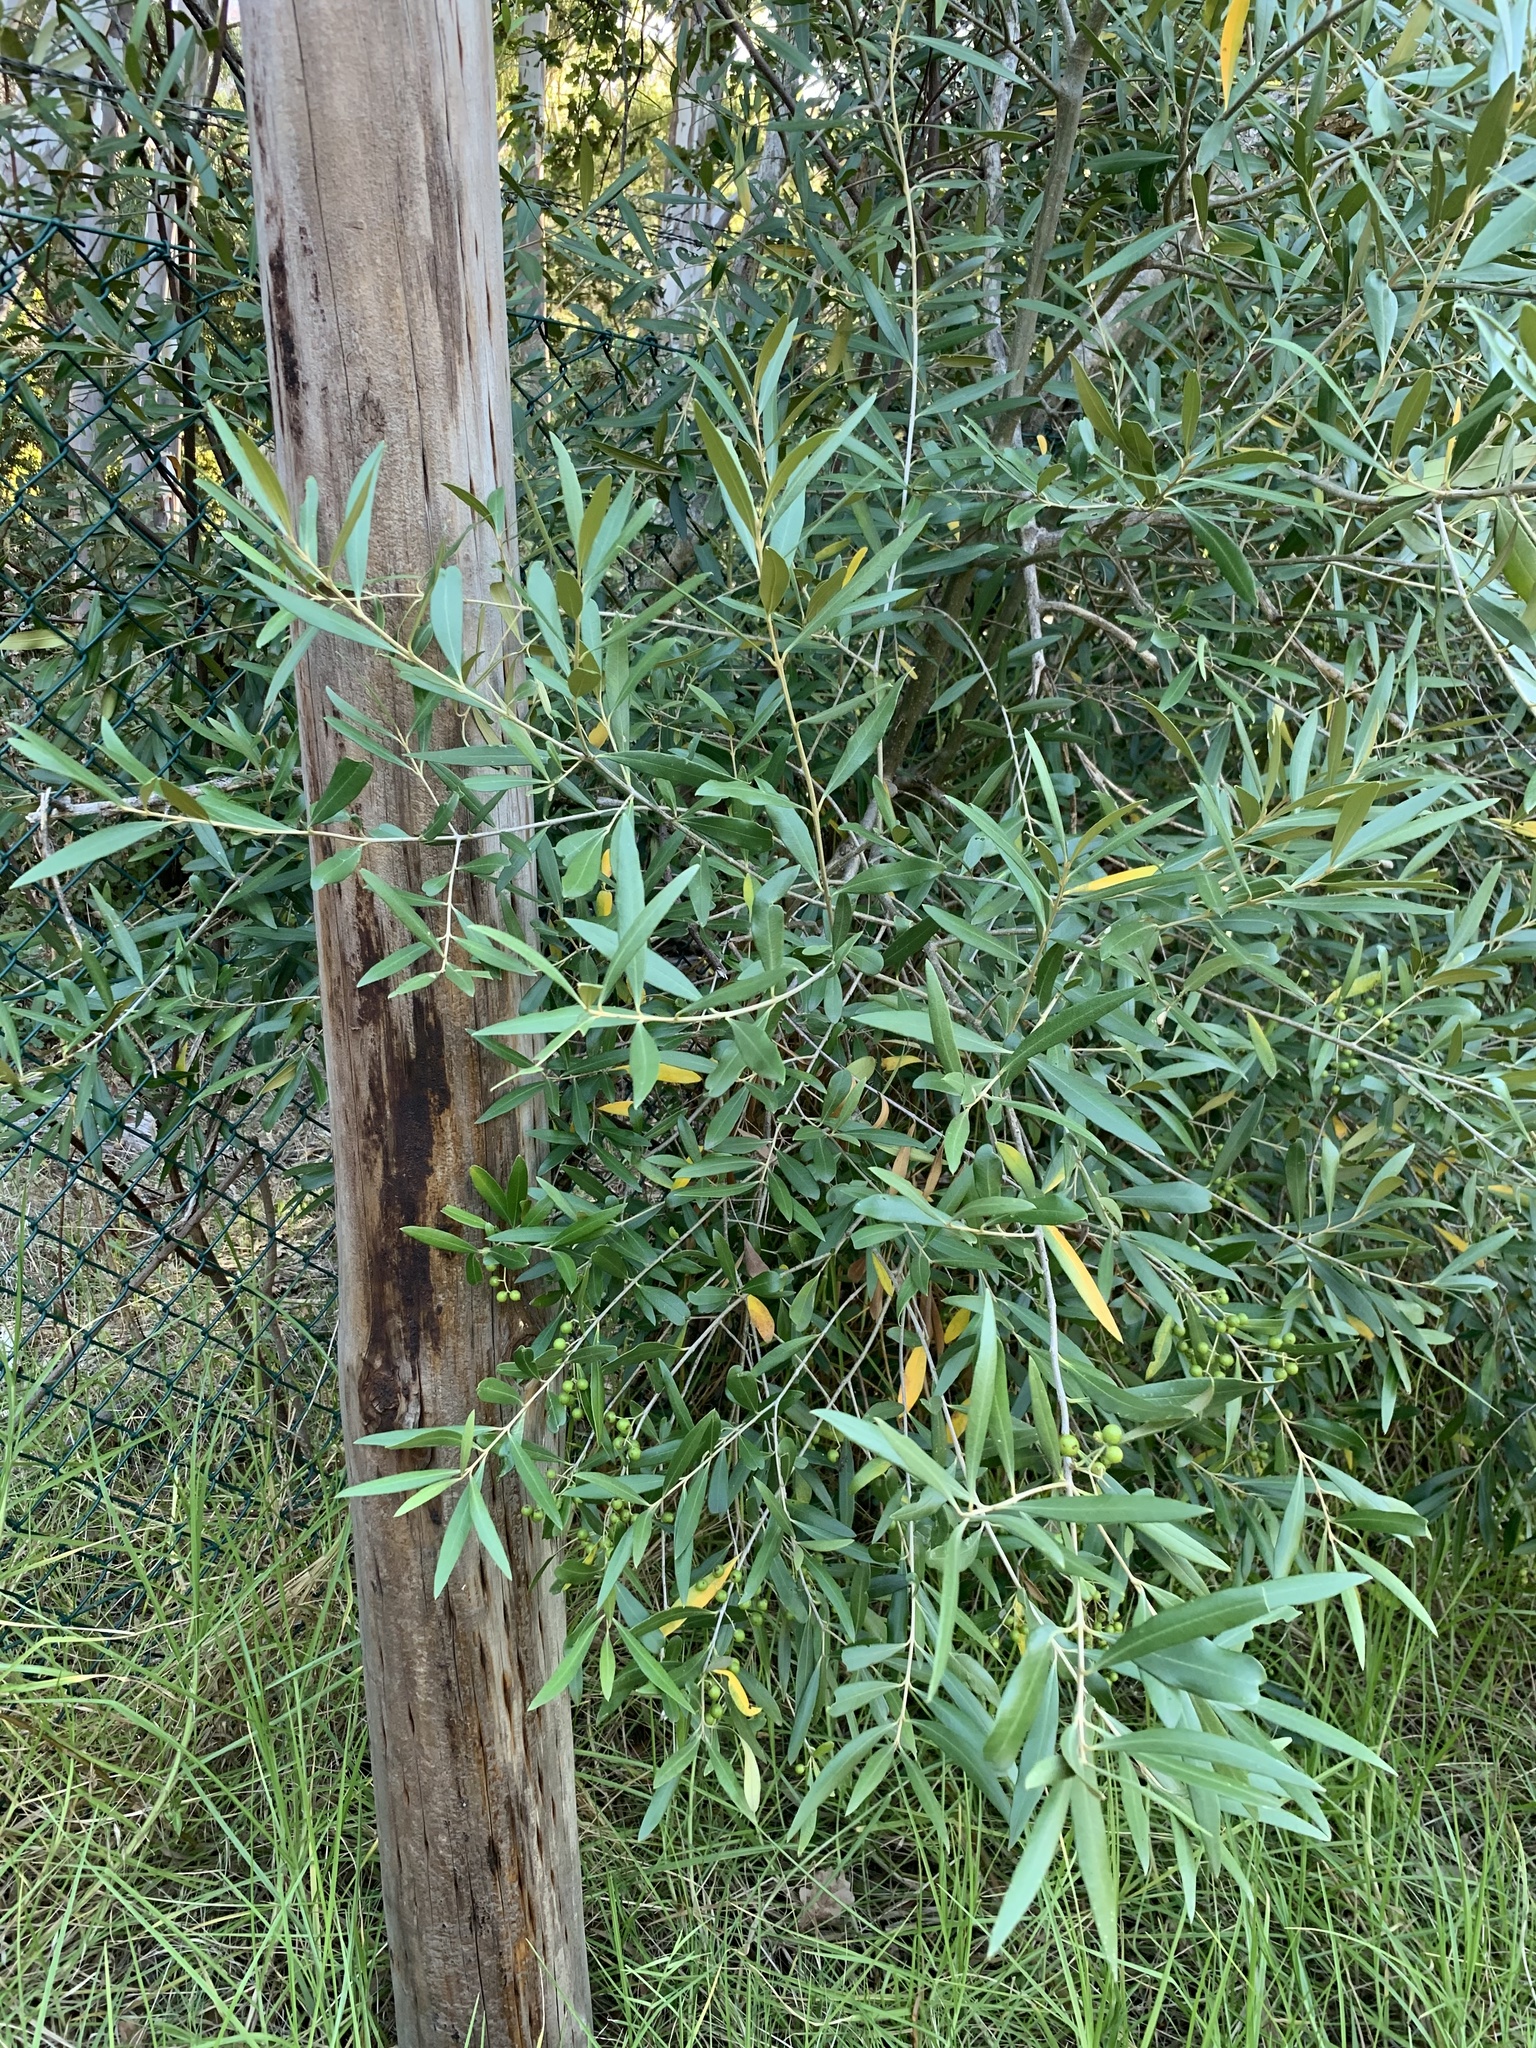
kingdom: Plantae
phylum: Tracheophyta
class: Magnoliopsida
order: Lamiales
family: Oleaceae
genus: Olea
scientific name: Olea europaea
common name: Olive
